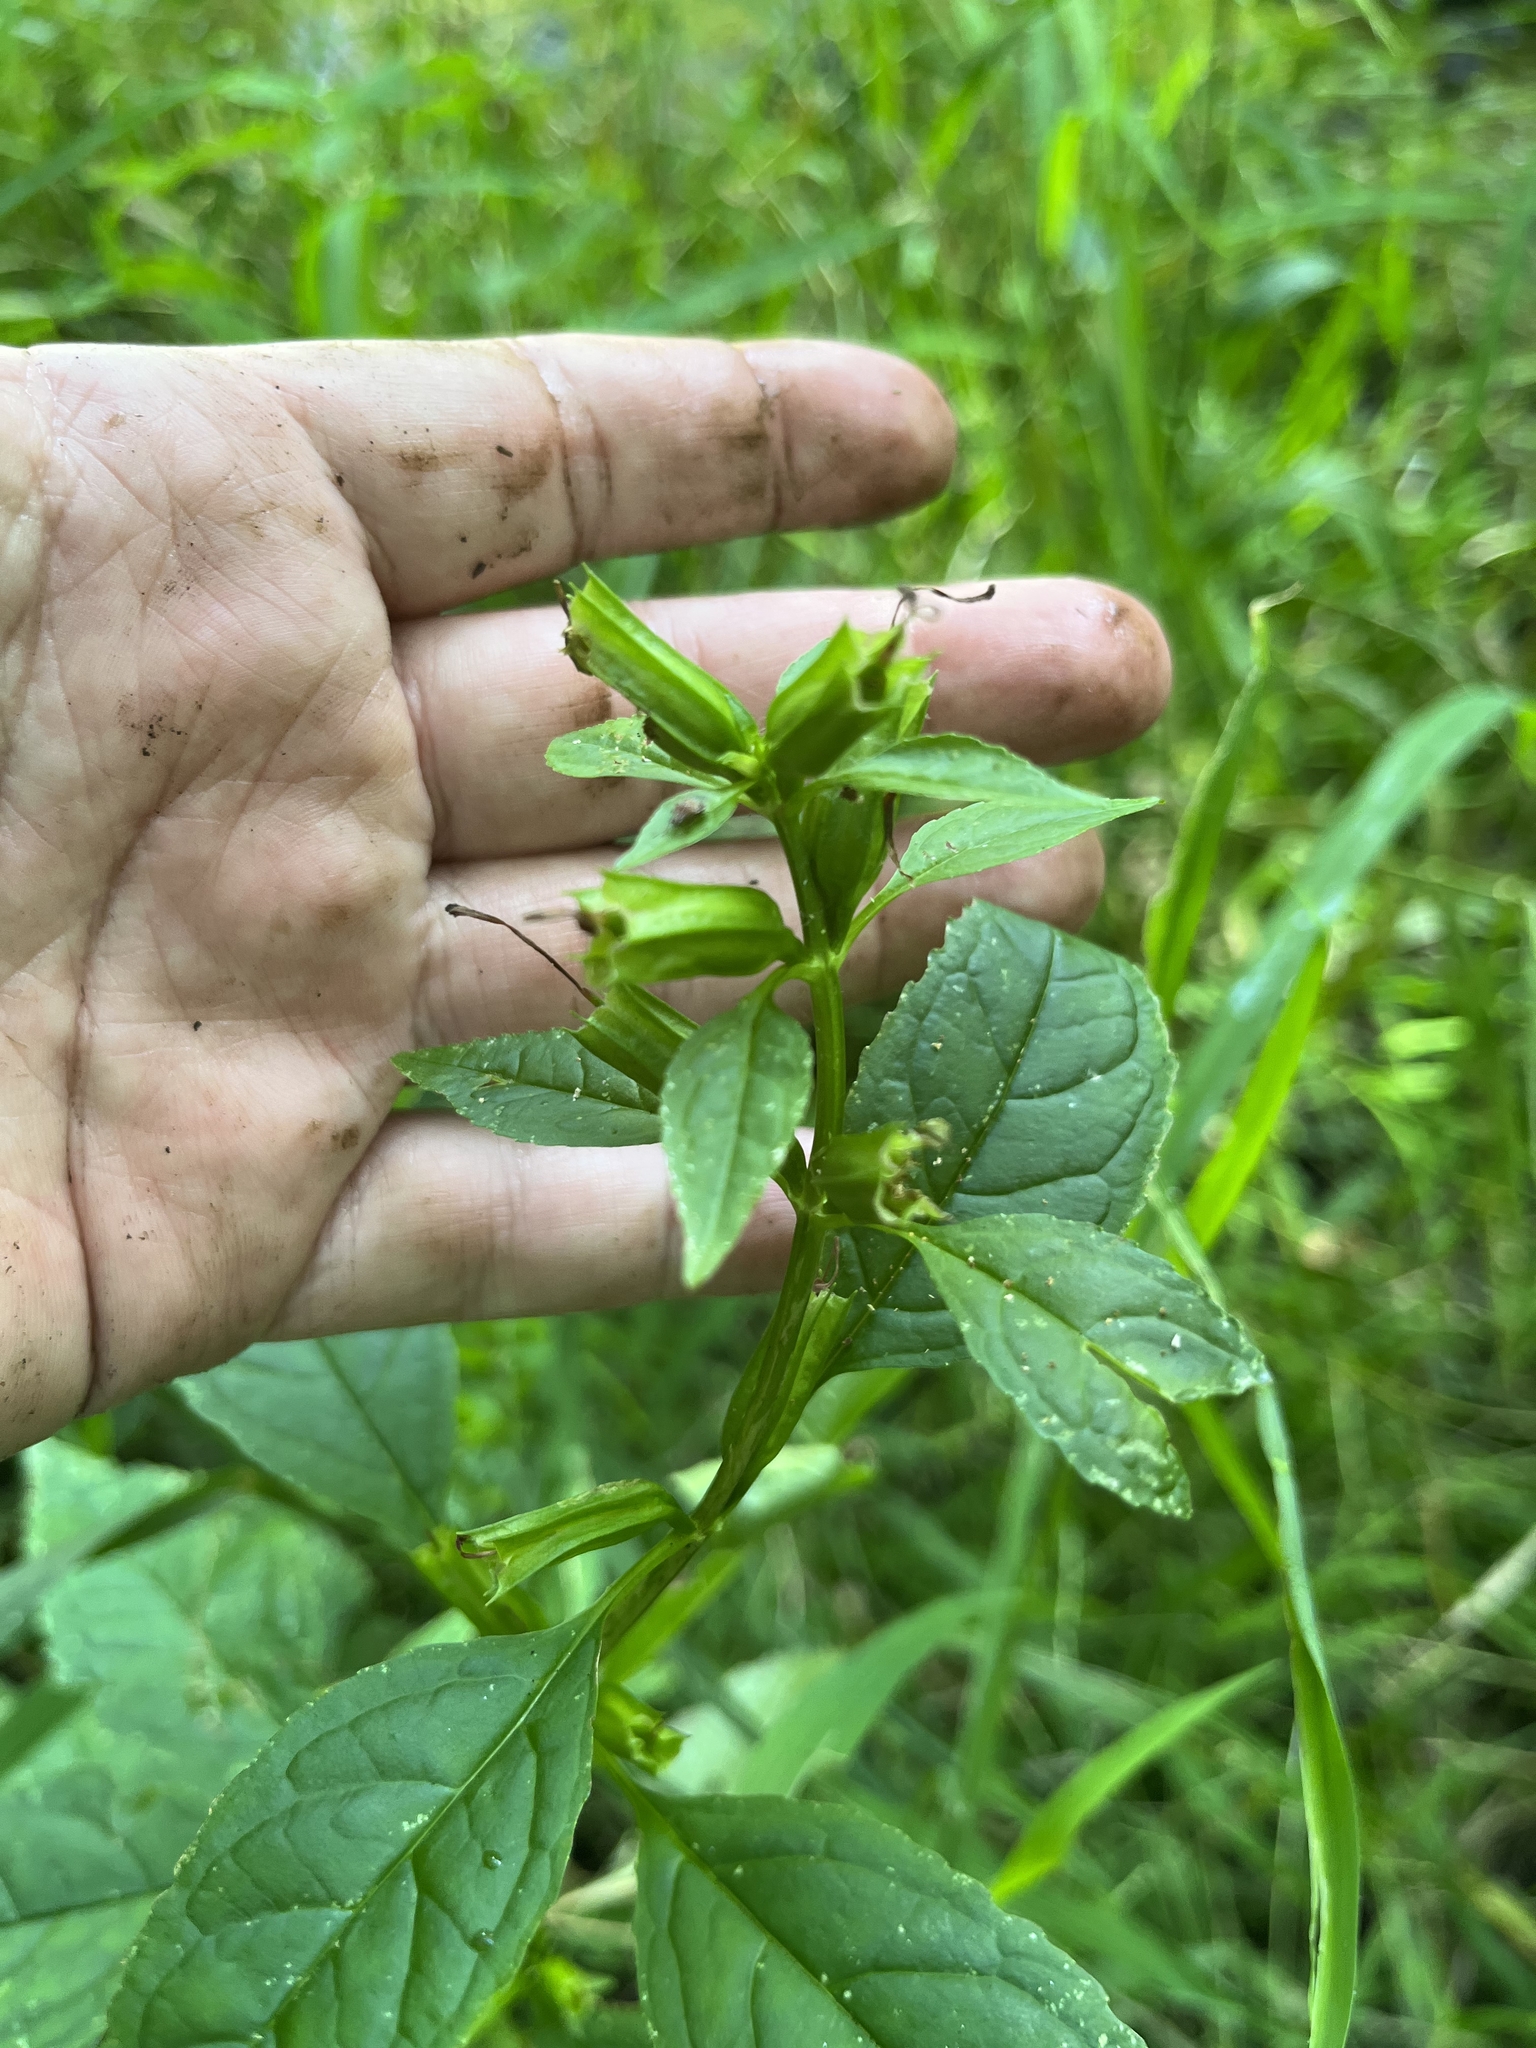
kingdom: Plantae
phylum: Tracheophyta
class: Magnoliopsida
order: Lamiales
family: Phrymaceae
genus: Mimulus
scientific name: Mimulus alatus
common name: Sharp-wing monkey-flower
